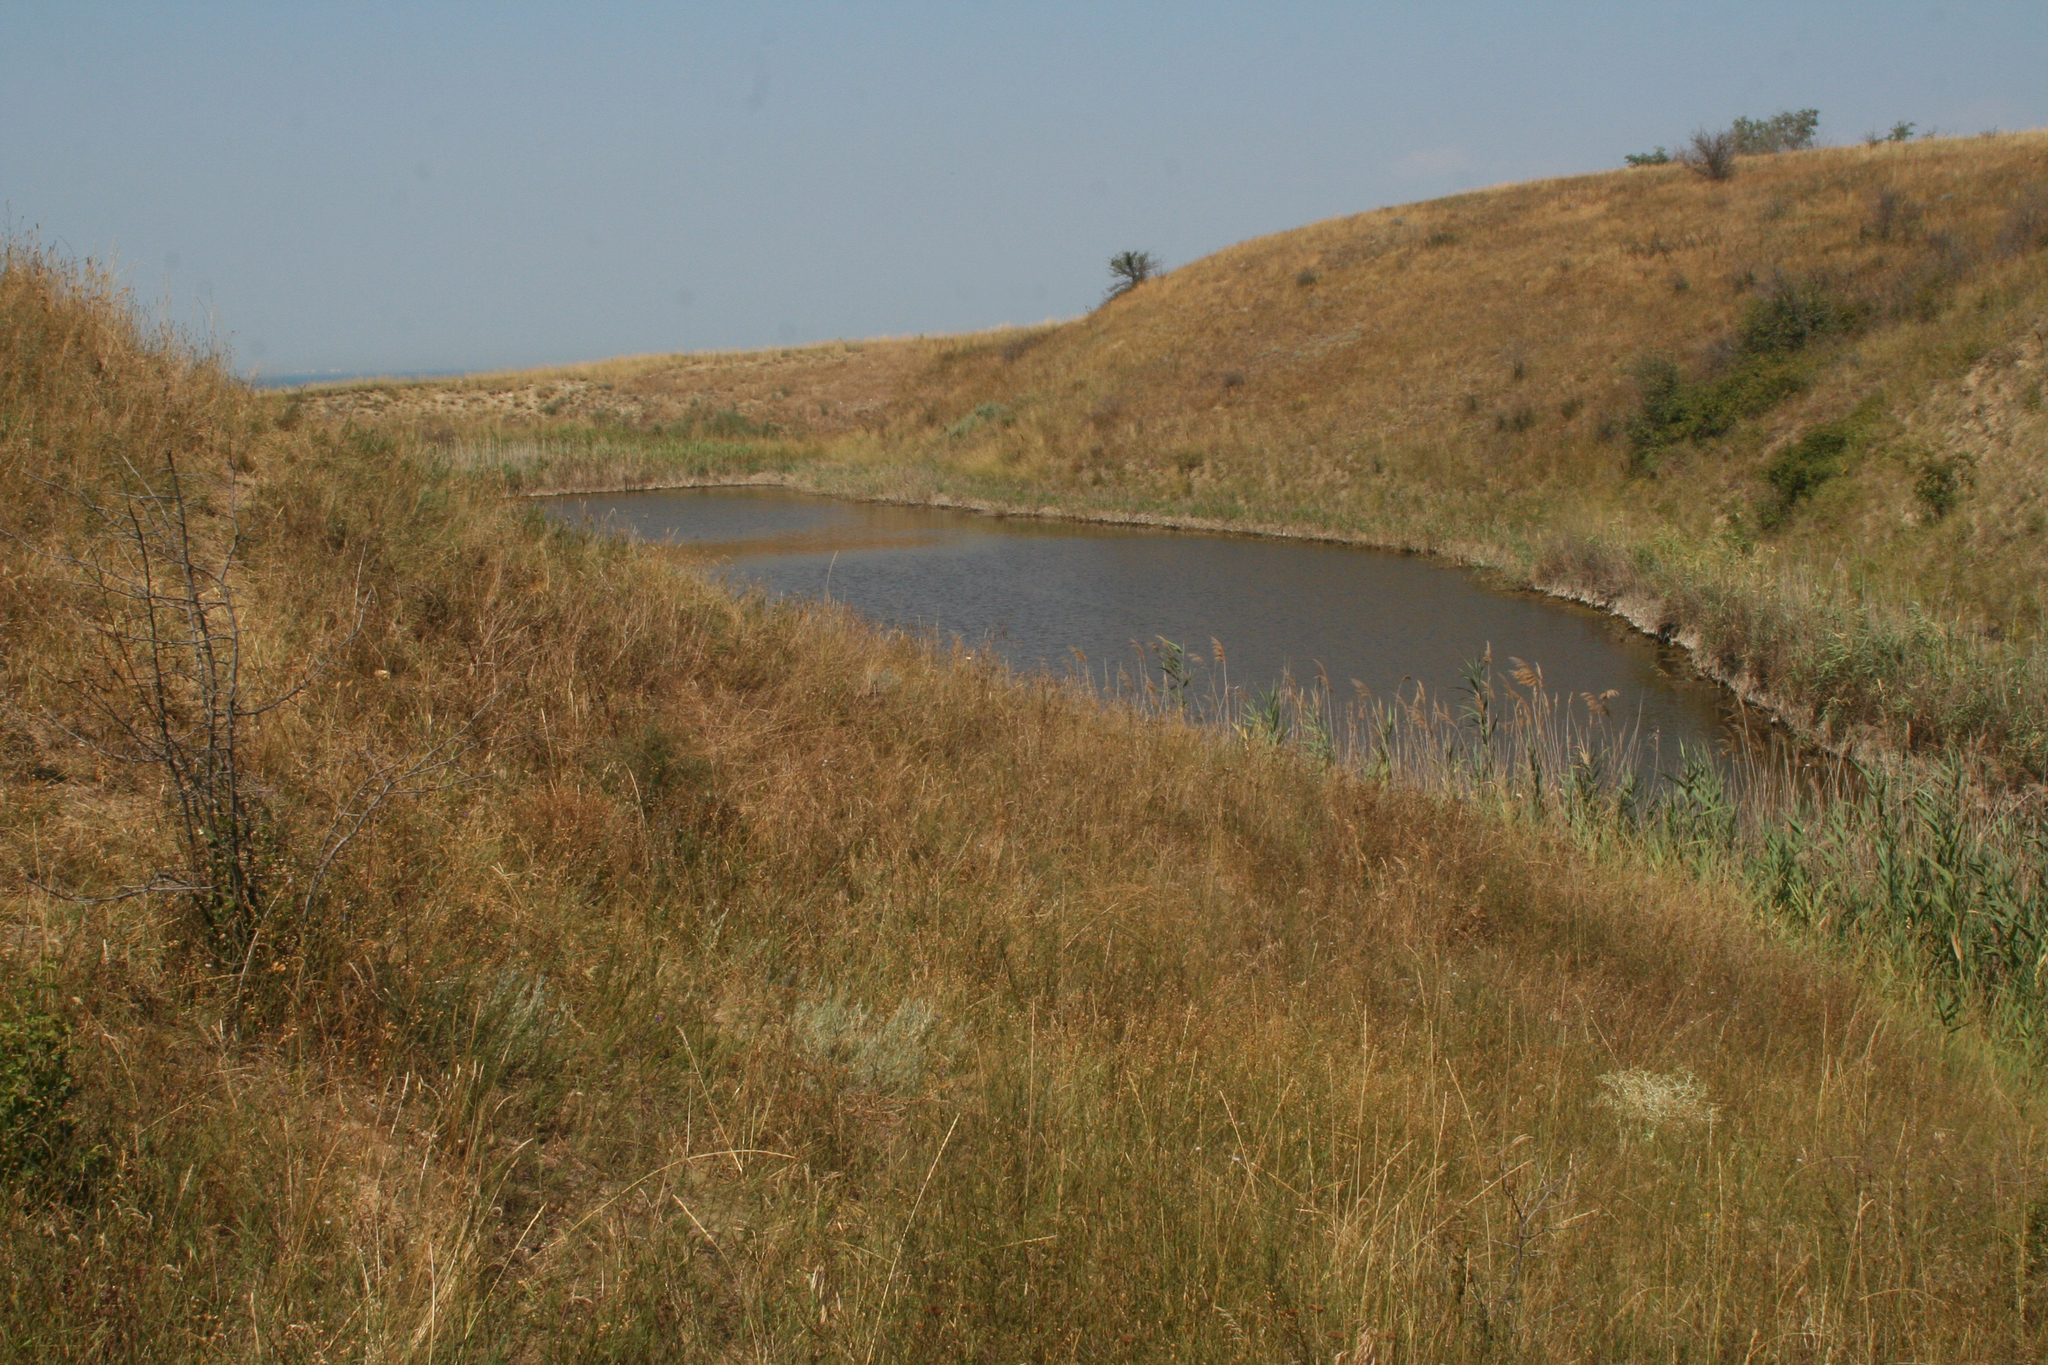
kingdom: Plantae
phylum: Tracheophyta
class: Liliopsida
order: Poales
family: Poaceae
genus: Phragmites
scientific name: Phragmites australis
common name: Common reed
